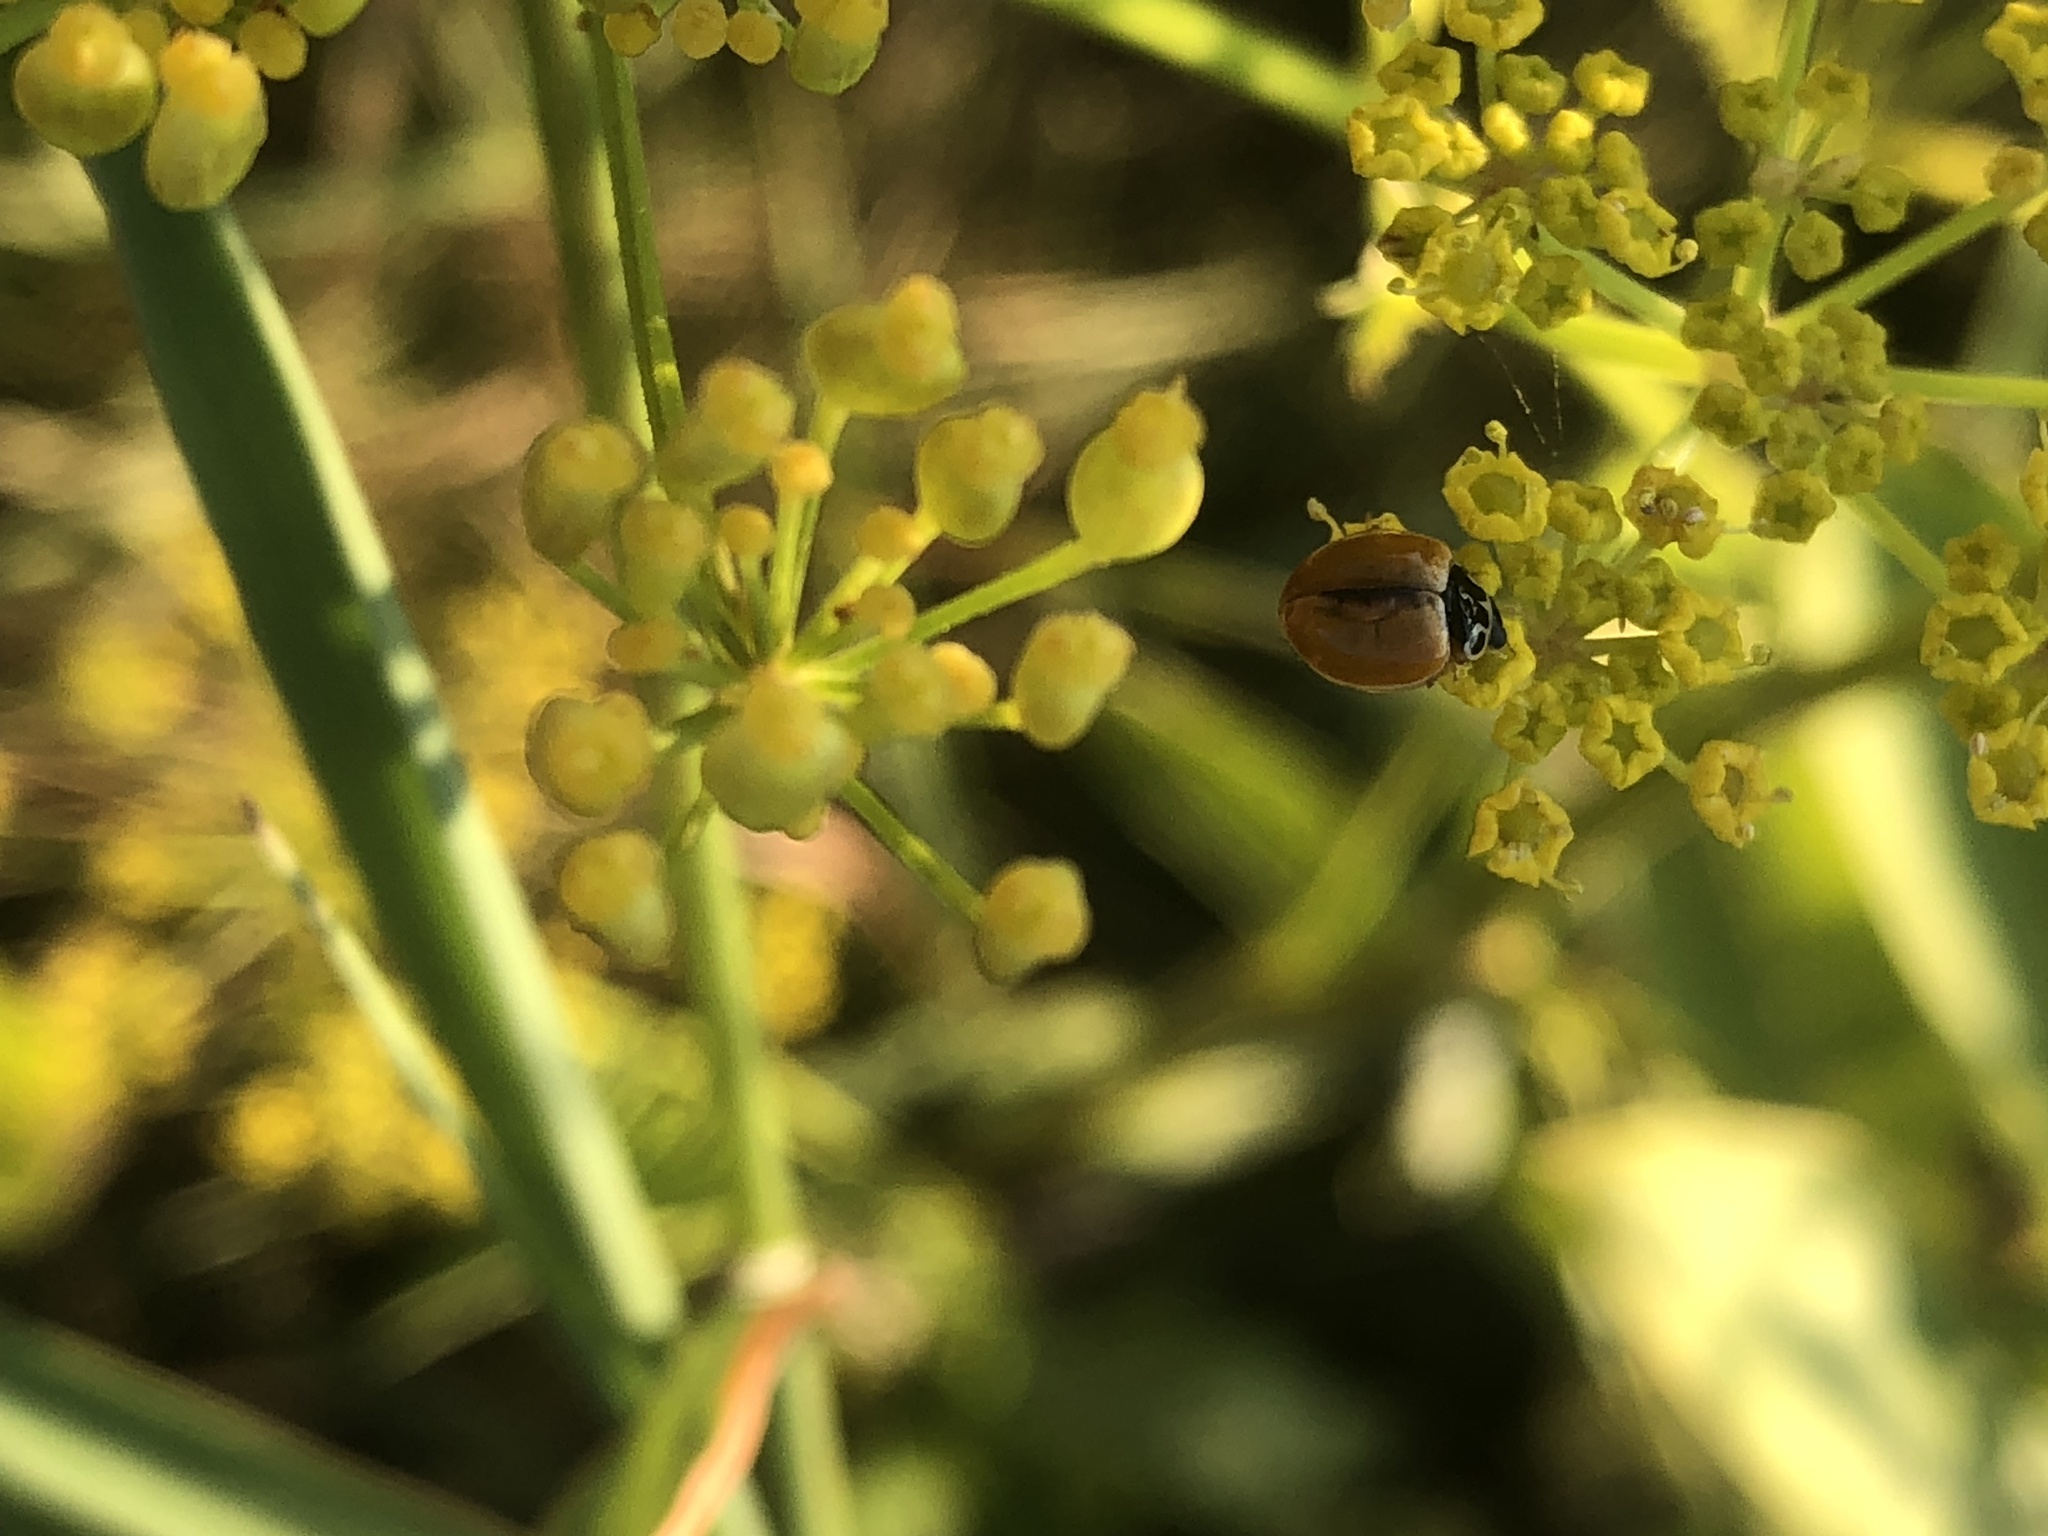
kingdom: Animalia
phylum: Arthropoda
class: Insecta
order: Coleoptera
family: Coccinellidae
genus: Cycloneda
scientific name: Cycloneda munda
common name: Polished lady beetle
